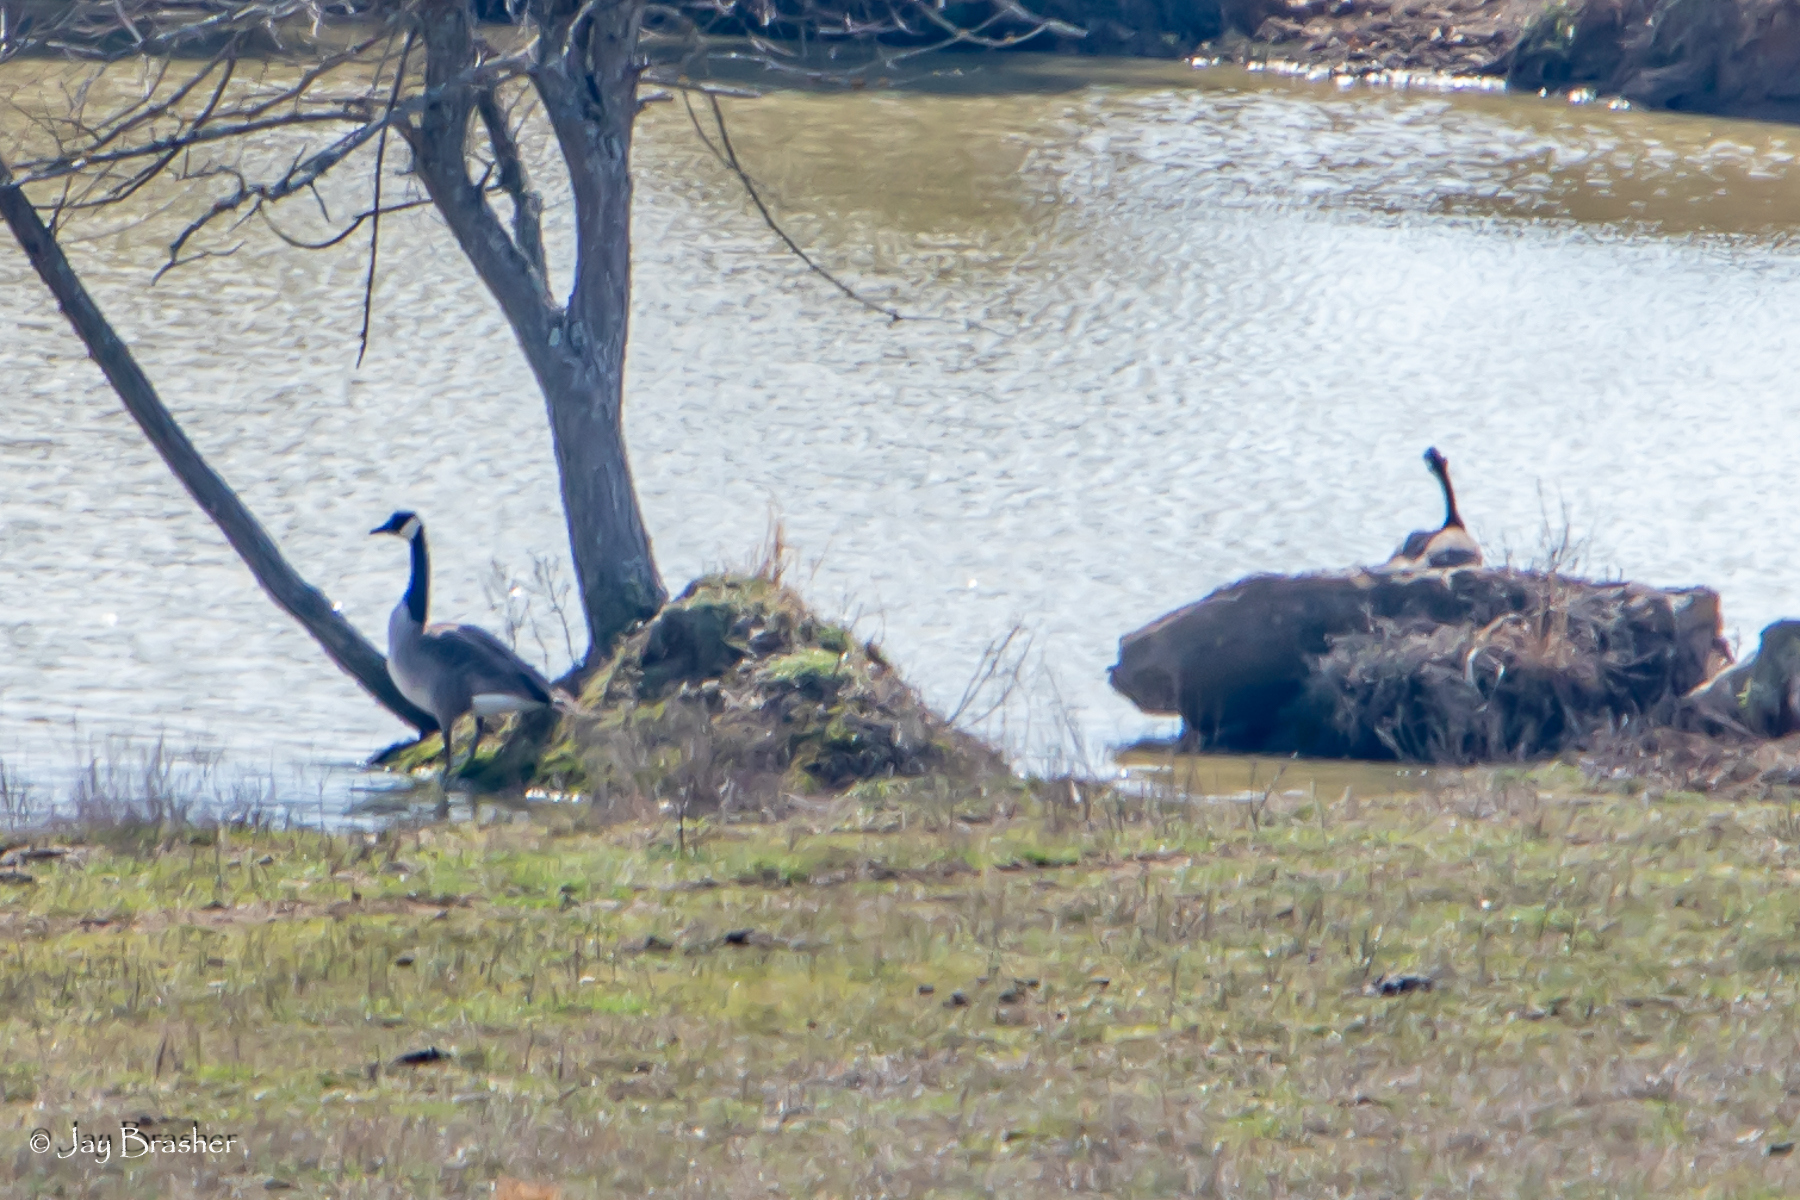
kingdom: Animalia
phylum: Chordata
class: Aves
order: Anseriformes
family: Anatidae
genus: Branta
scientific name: Branta canadensis
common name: Canada goose
